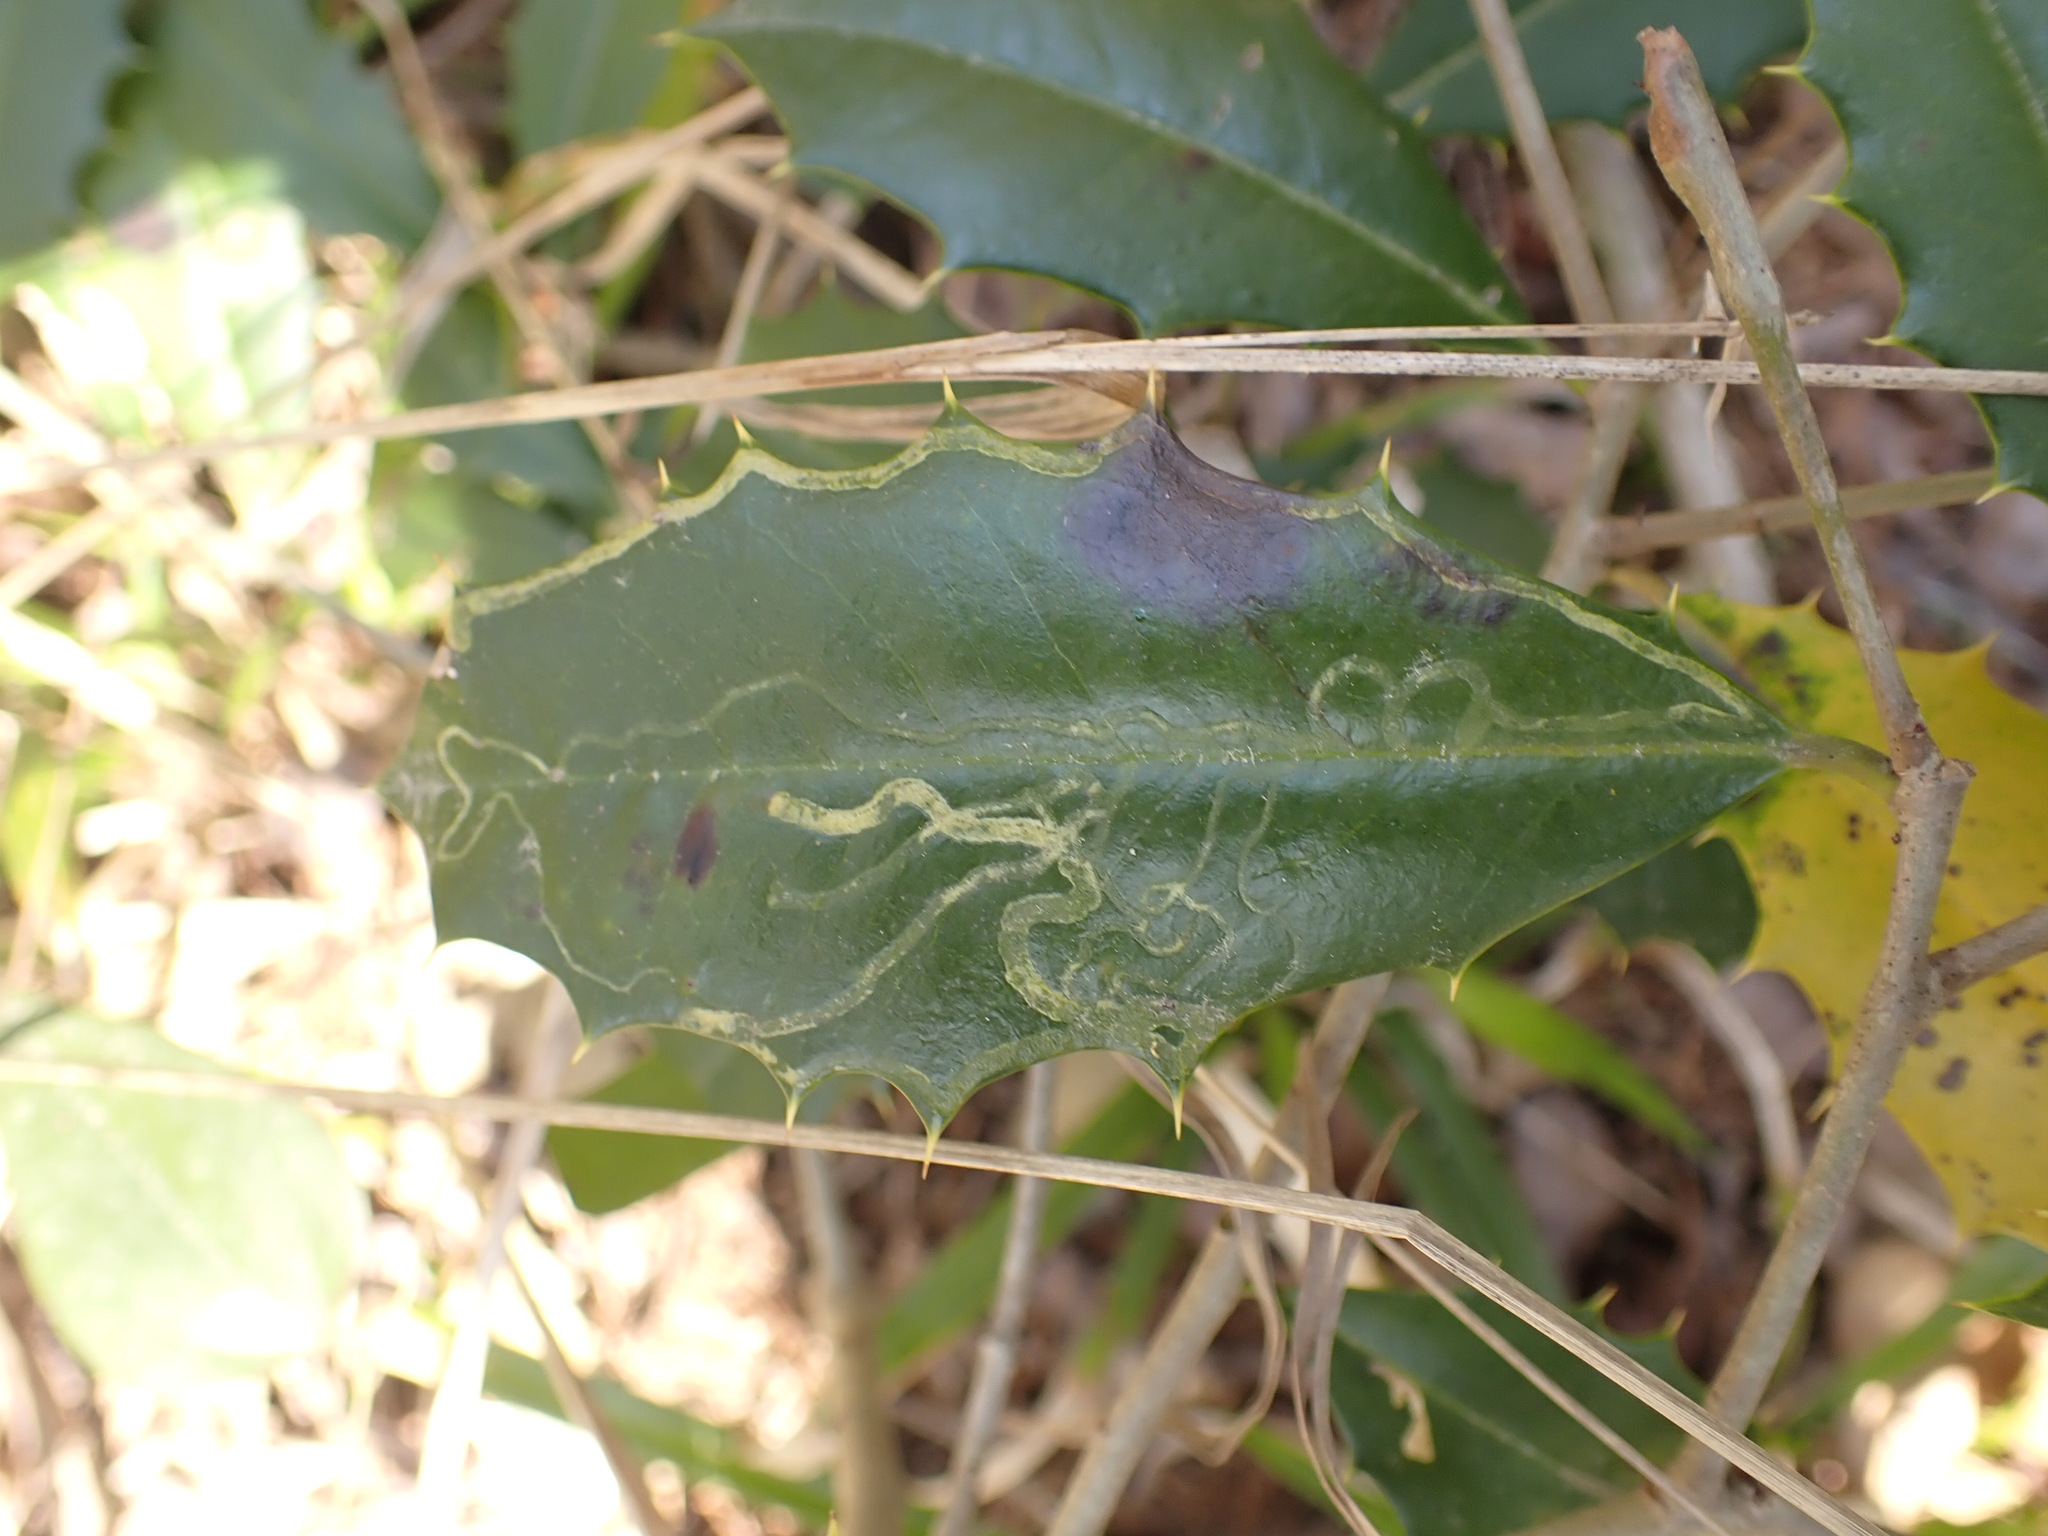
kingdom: Animalia
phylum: Arthropoda
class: Insecta
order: Diptera
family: Agromyzidae
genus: Phytomyza
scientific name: Phytomyza opacae
